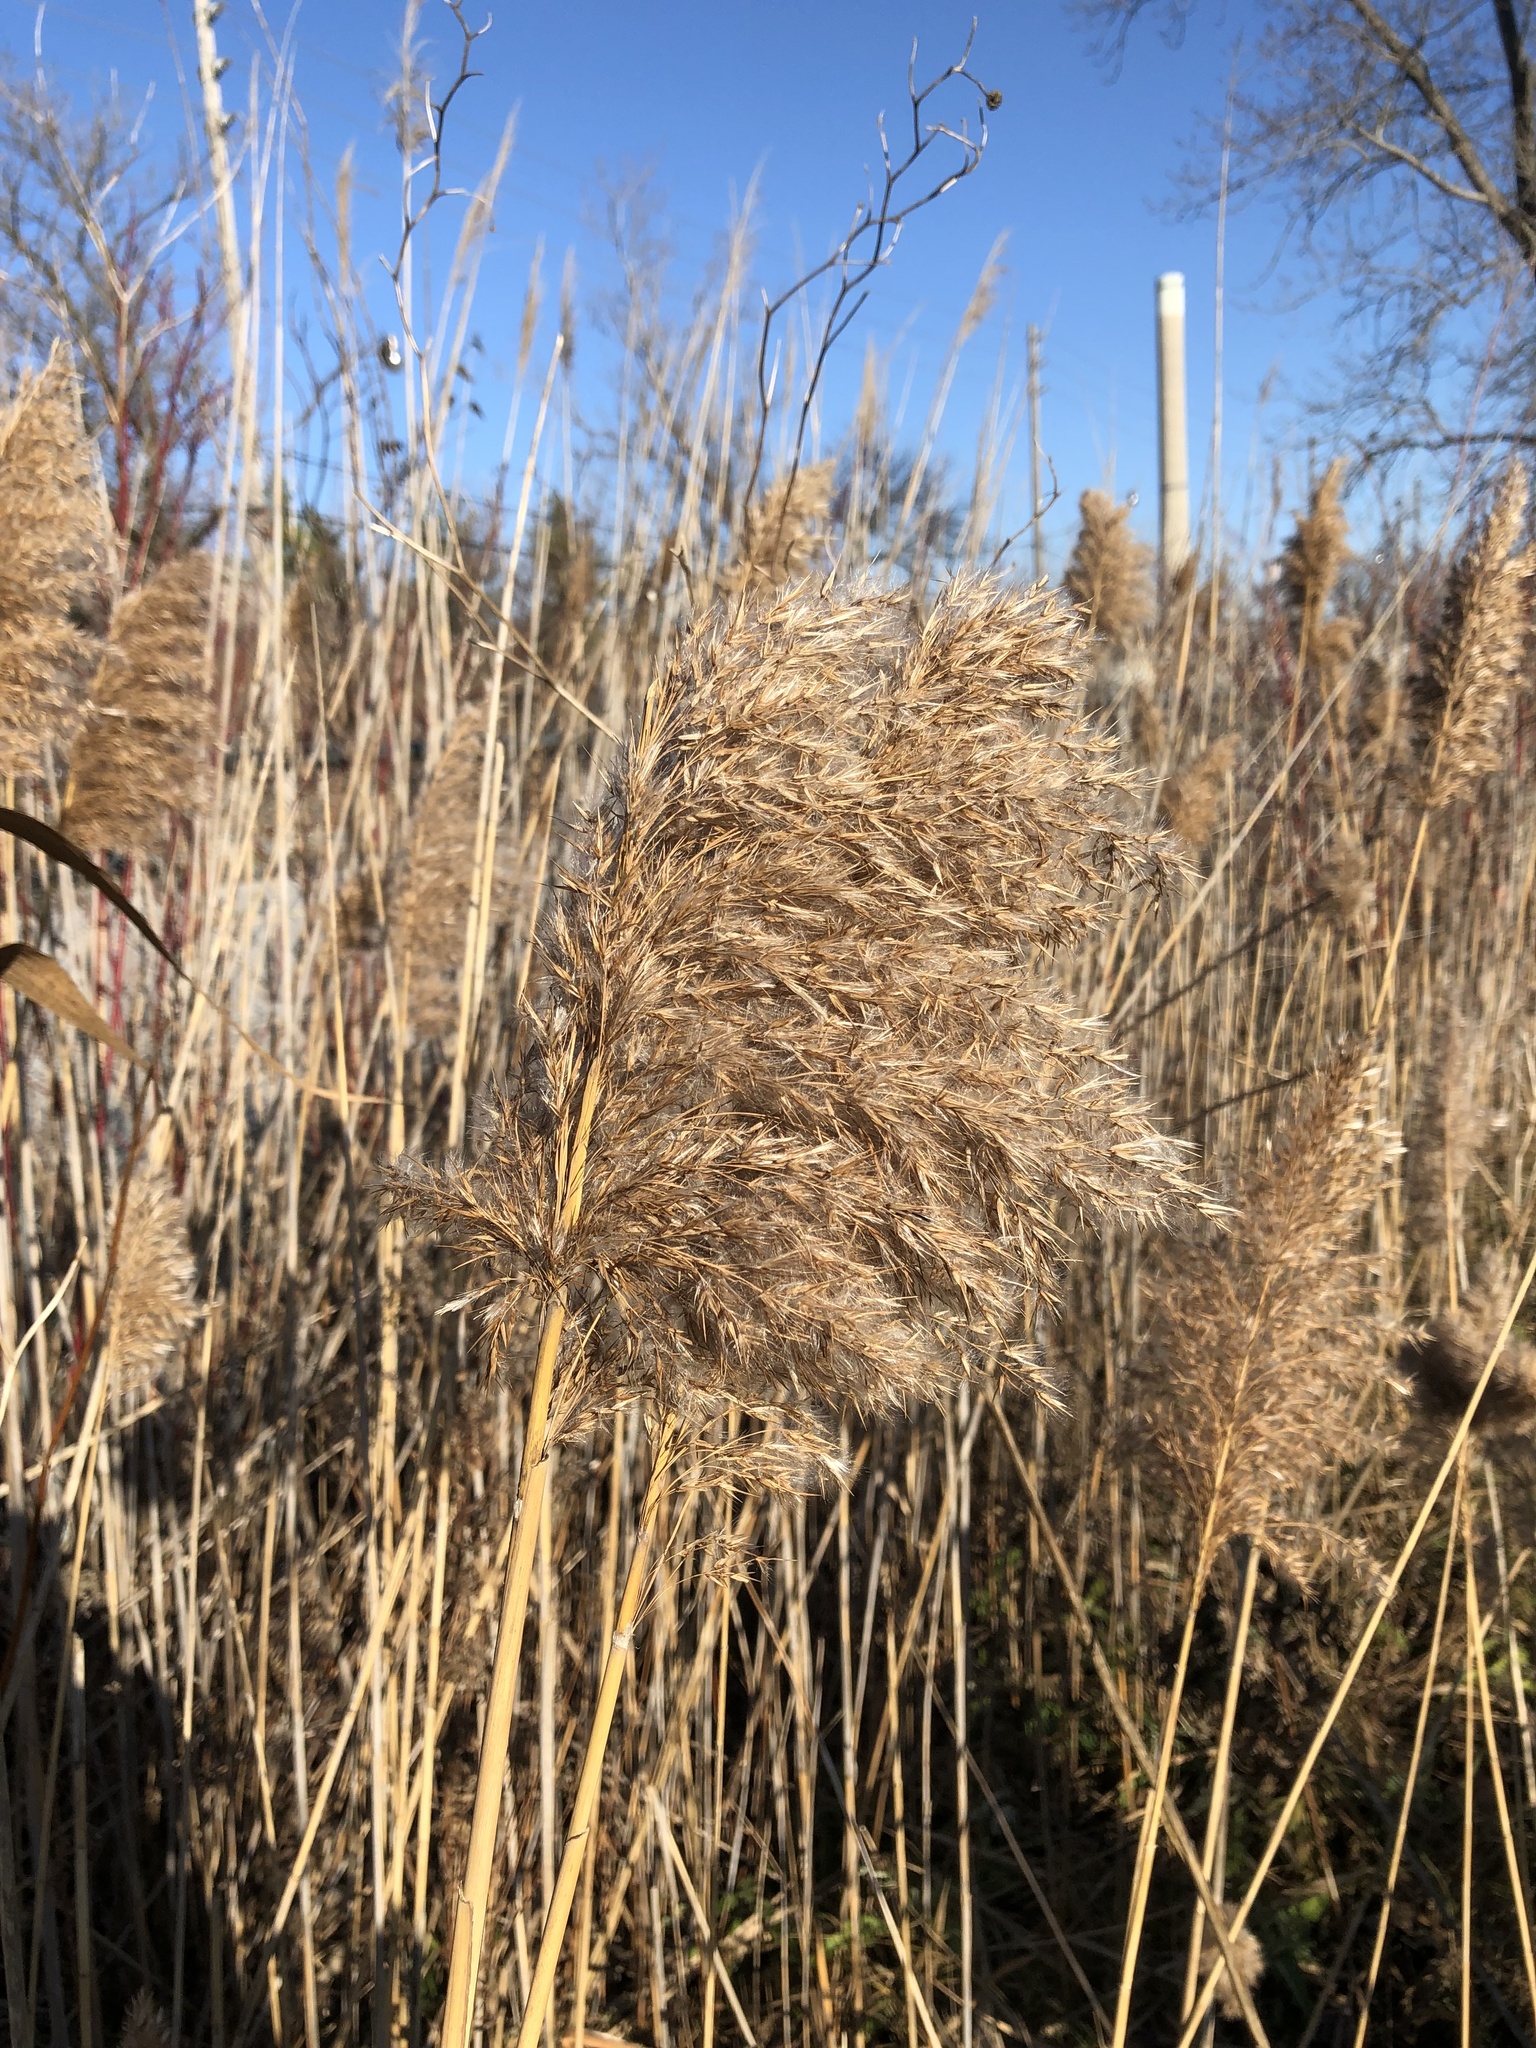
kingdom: Plantae
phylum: Tracheophyta
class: Liliopsida
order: Poales
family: Poaceae
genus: Phragmites
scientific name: Phragmites australis
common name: Common reed
